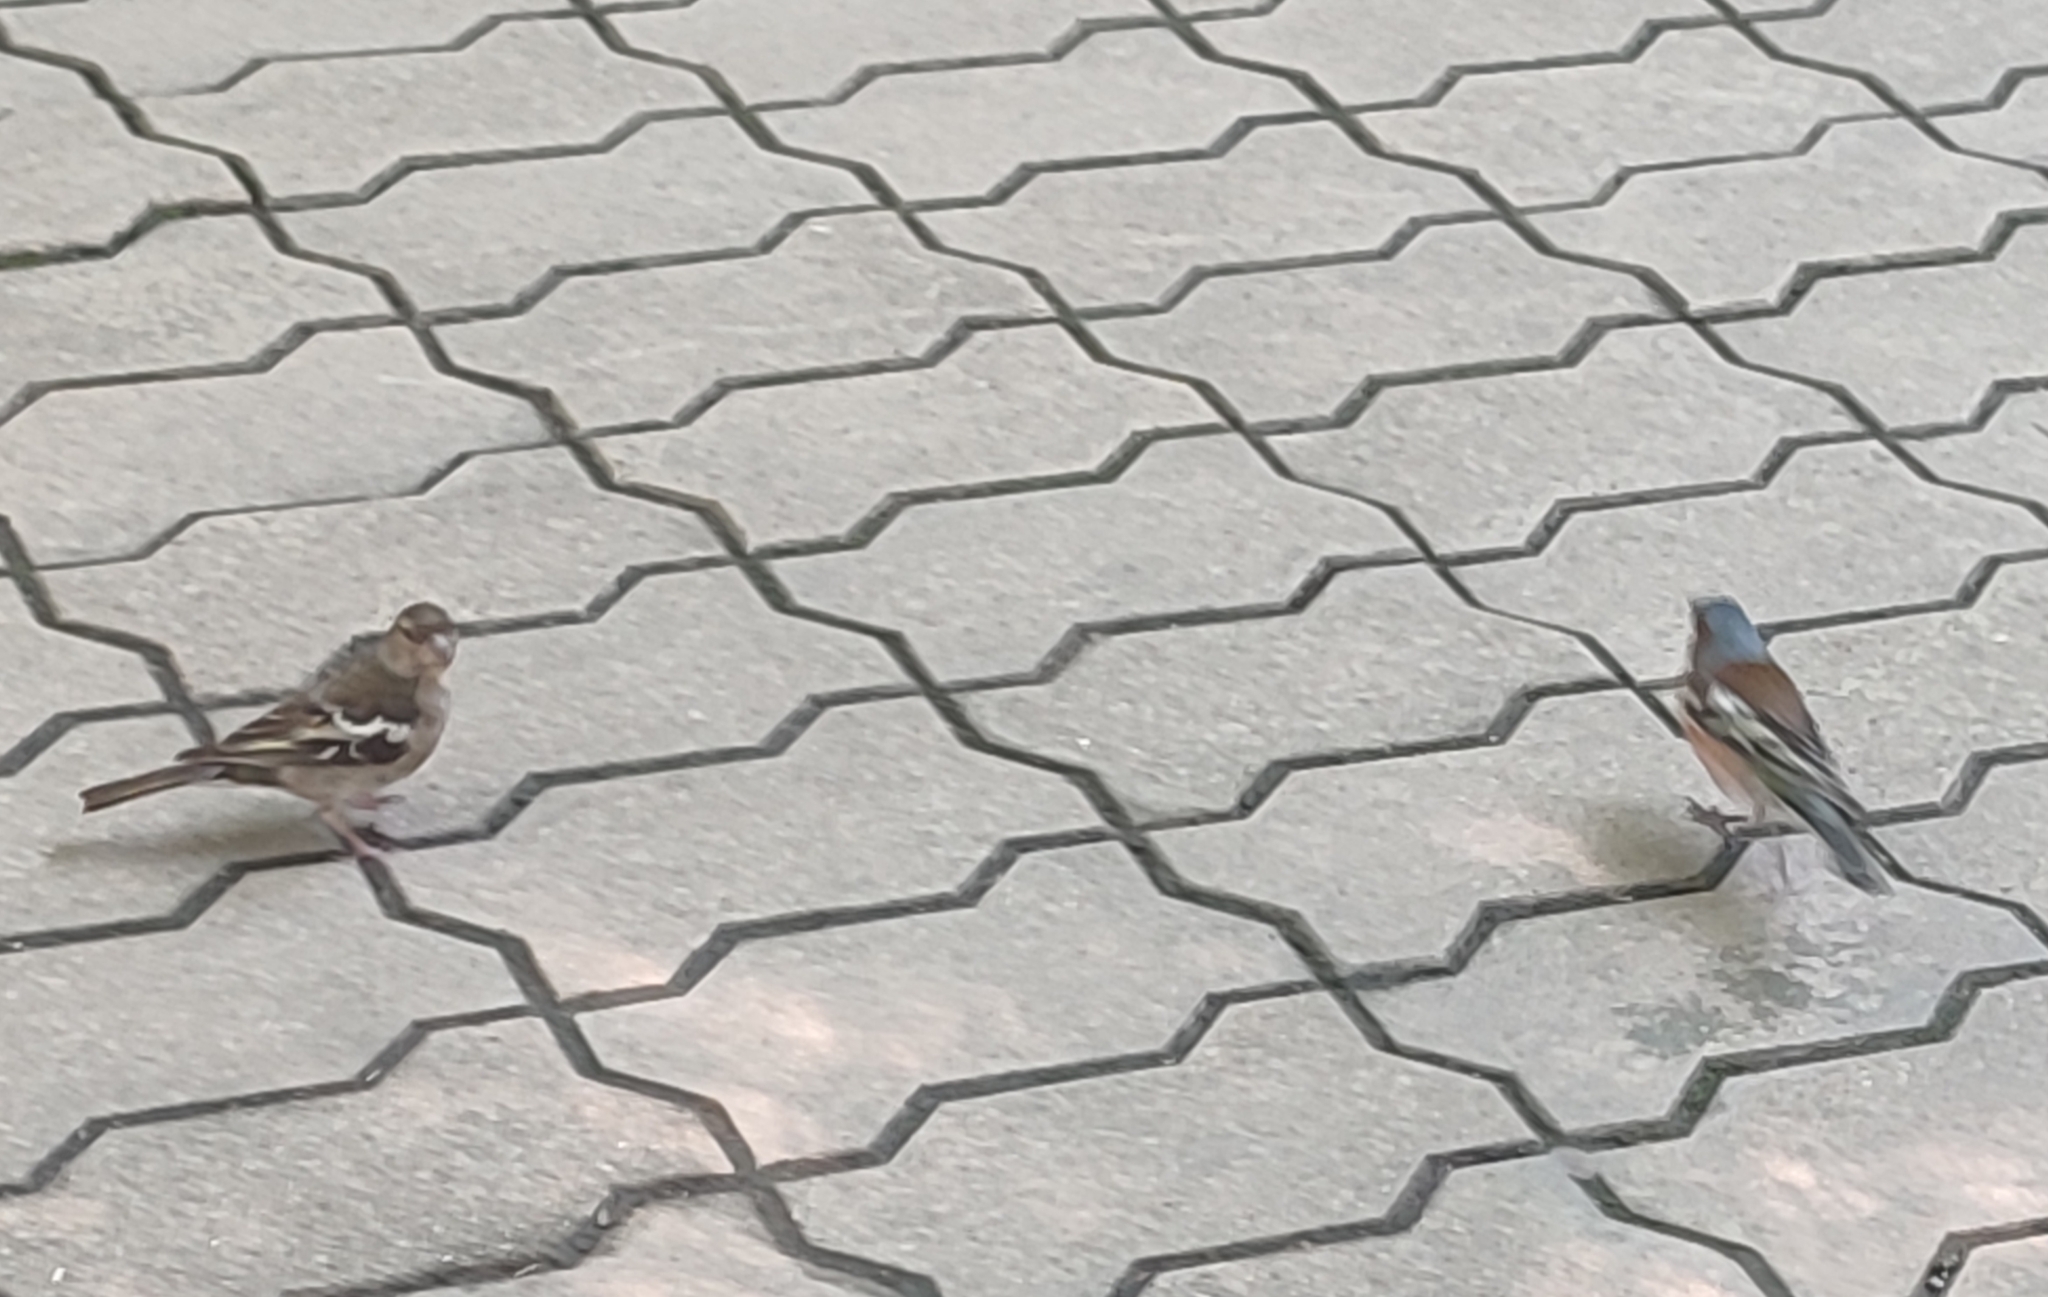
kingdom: Animalia
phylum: Chordata
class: Aves
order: Passeriformes
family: Fringillidae
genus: Fringilla
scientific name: Fringilla coelebs
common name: Common chaffinch
